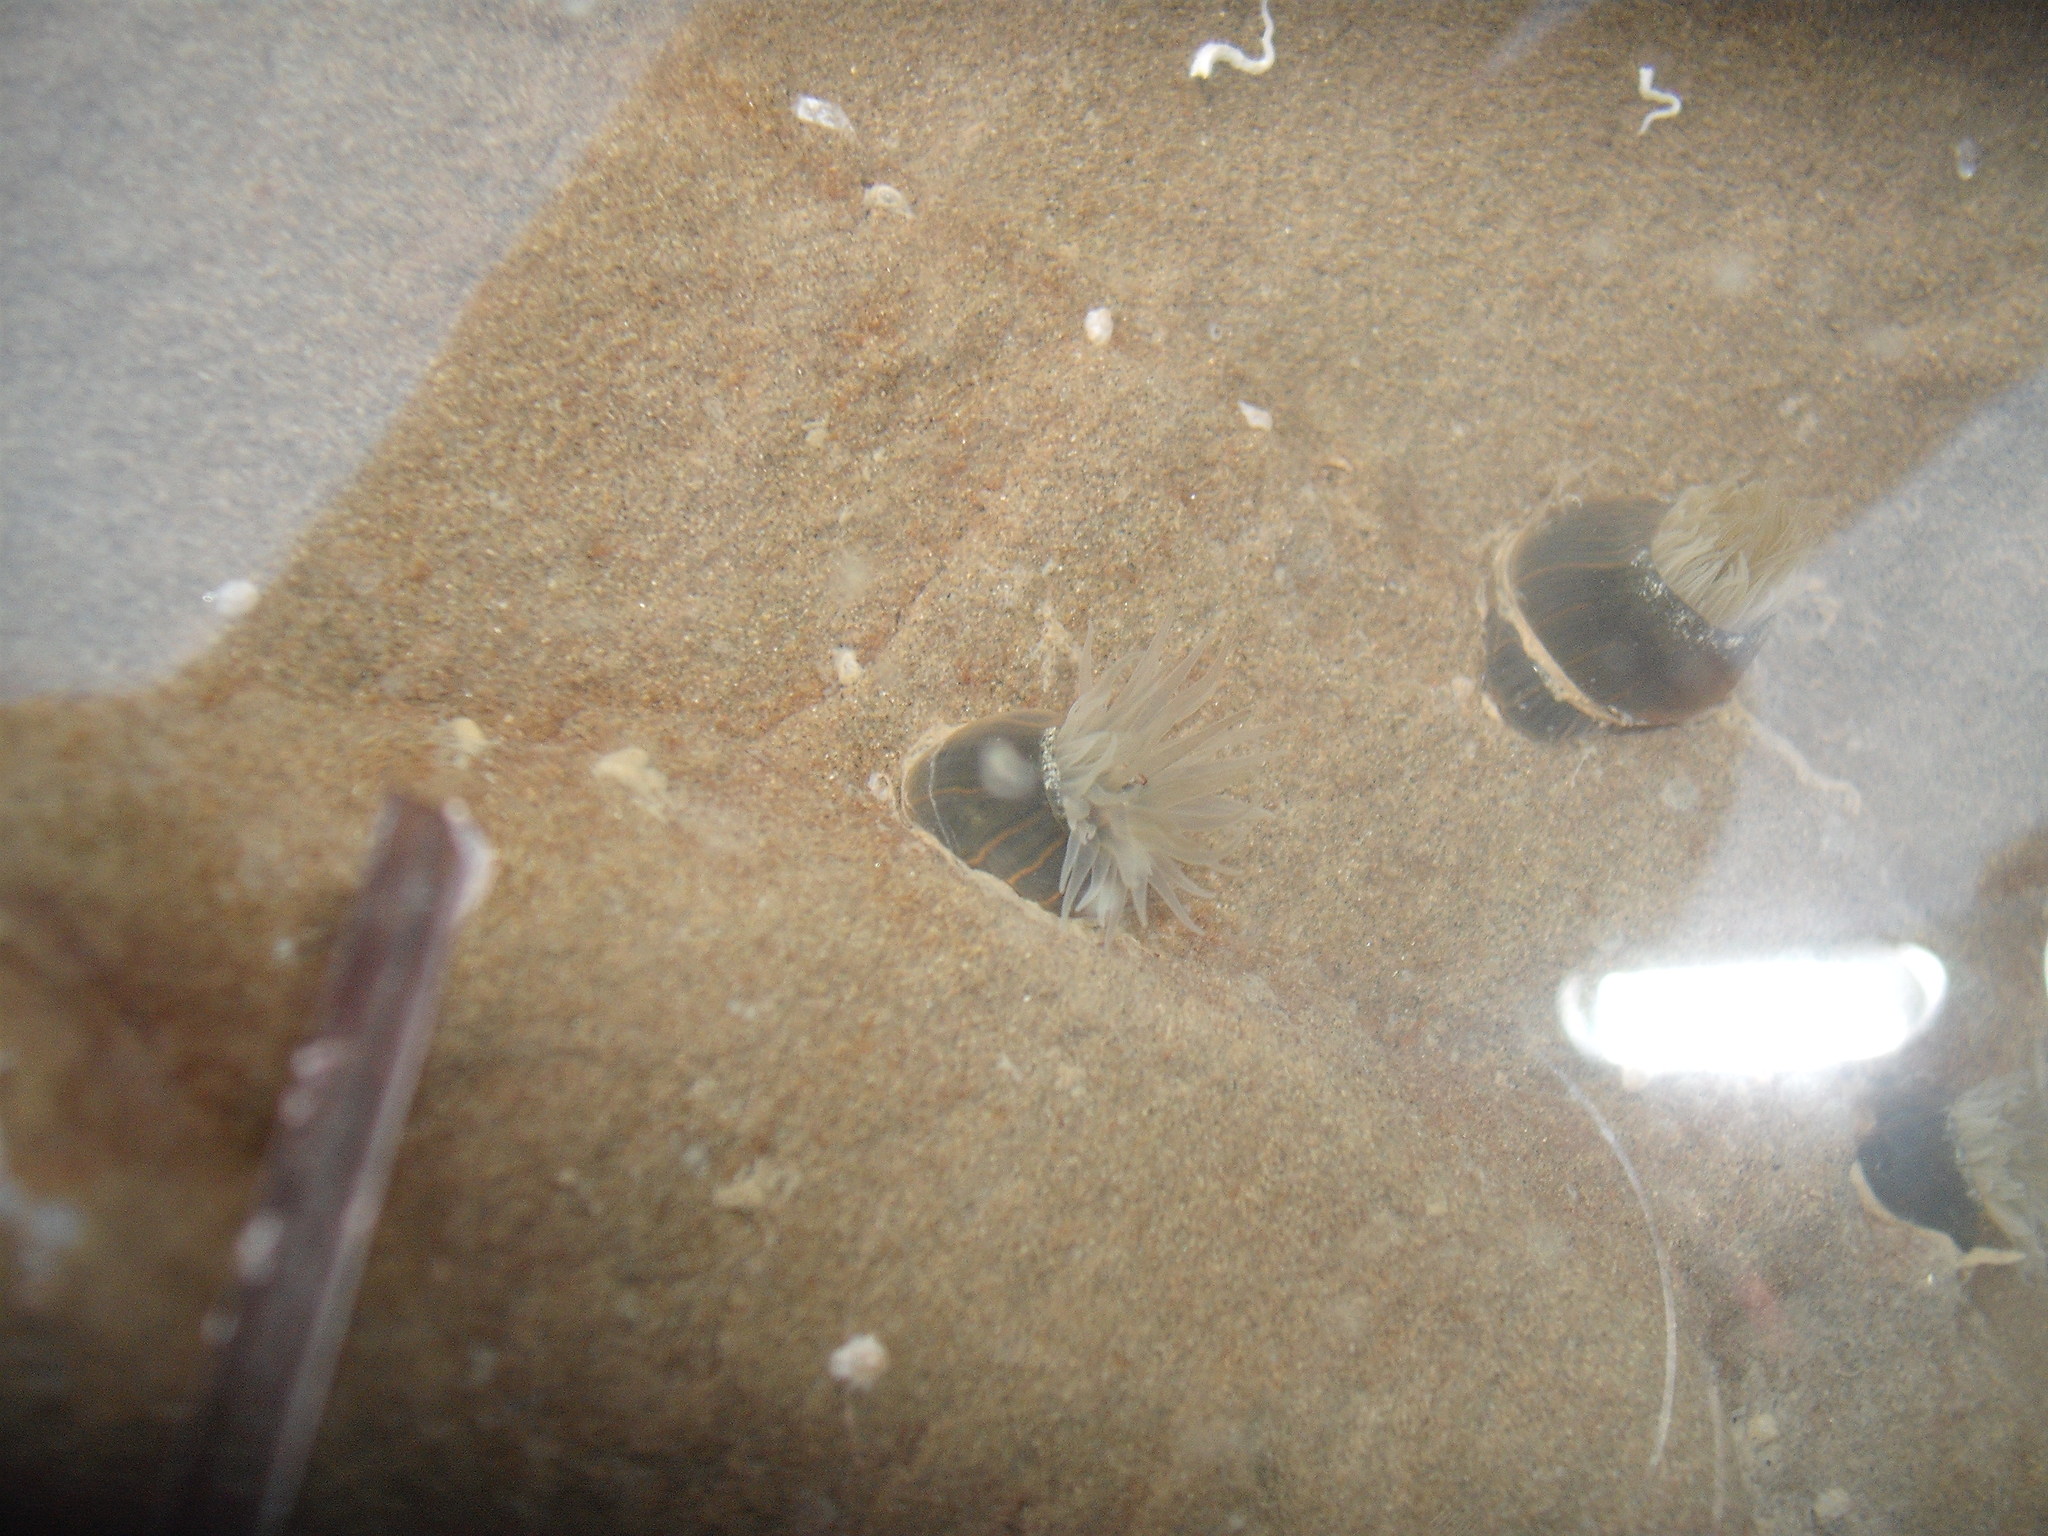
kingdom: Animalia
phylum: Cnidaria
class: Anthozoa
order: Actiniaria
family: Diadumenidae
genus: Diadumene
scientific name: Diadumene lineata
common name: Orange-striped anemone
